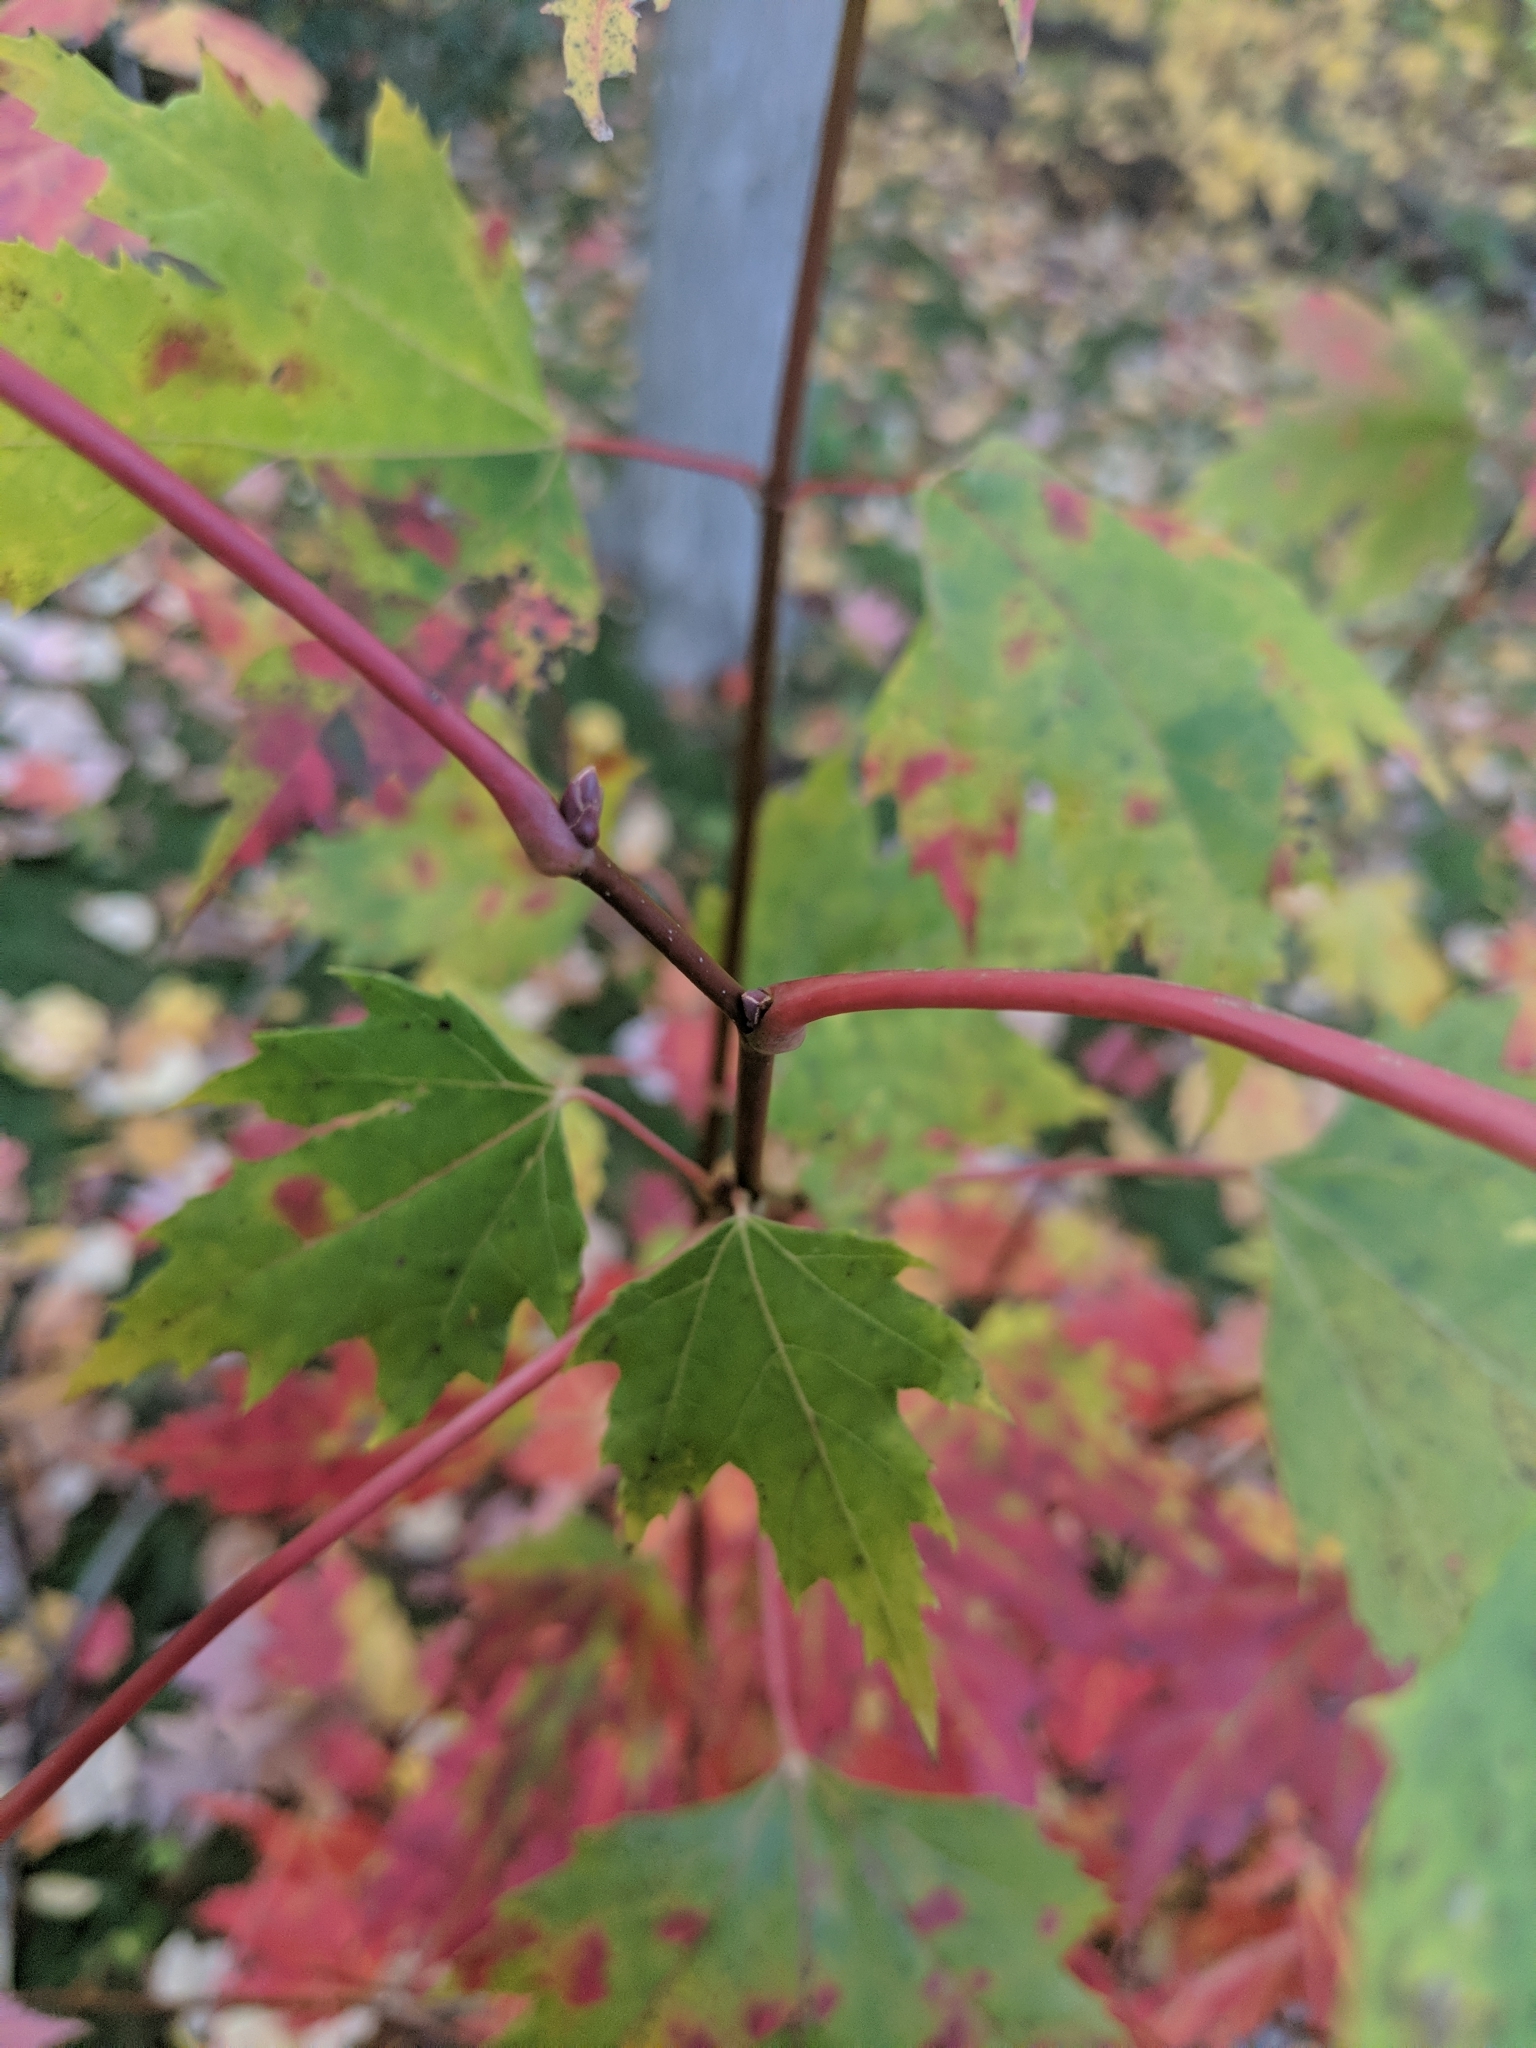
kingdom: Plantae
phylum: Tracheophyta
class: Magnoliopsida
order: Sapindales
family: Sapindaceae
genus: Acer
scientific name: Acer rubrum
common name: Red maple
